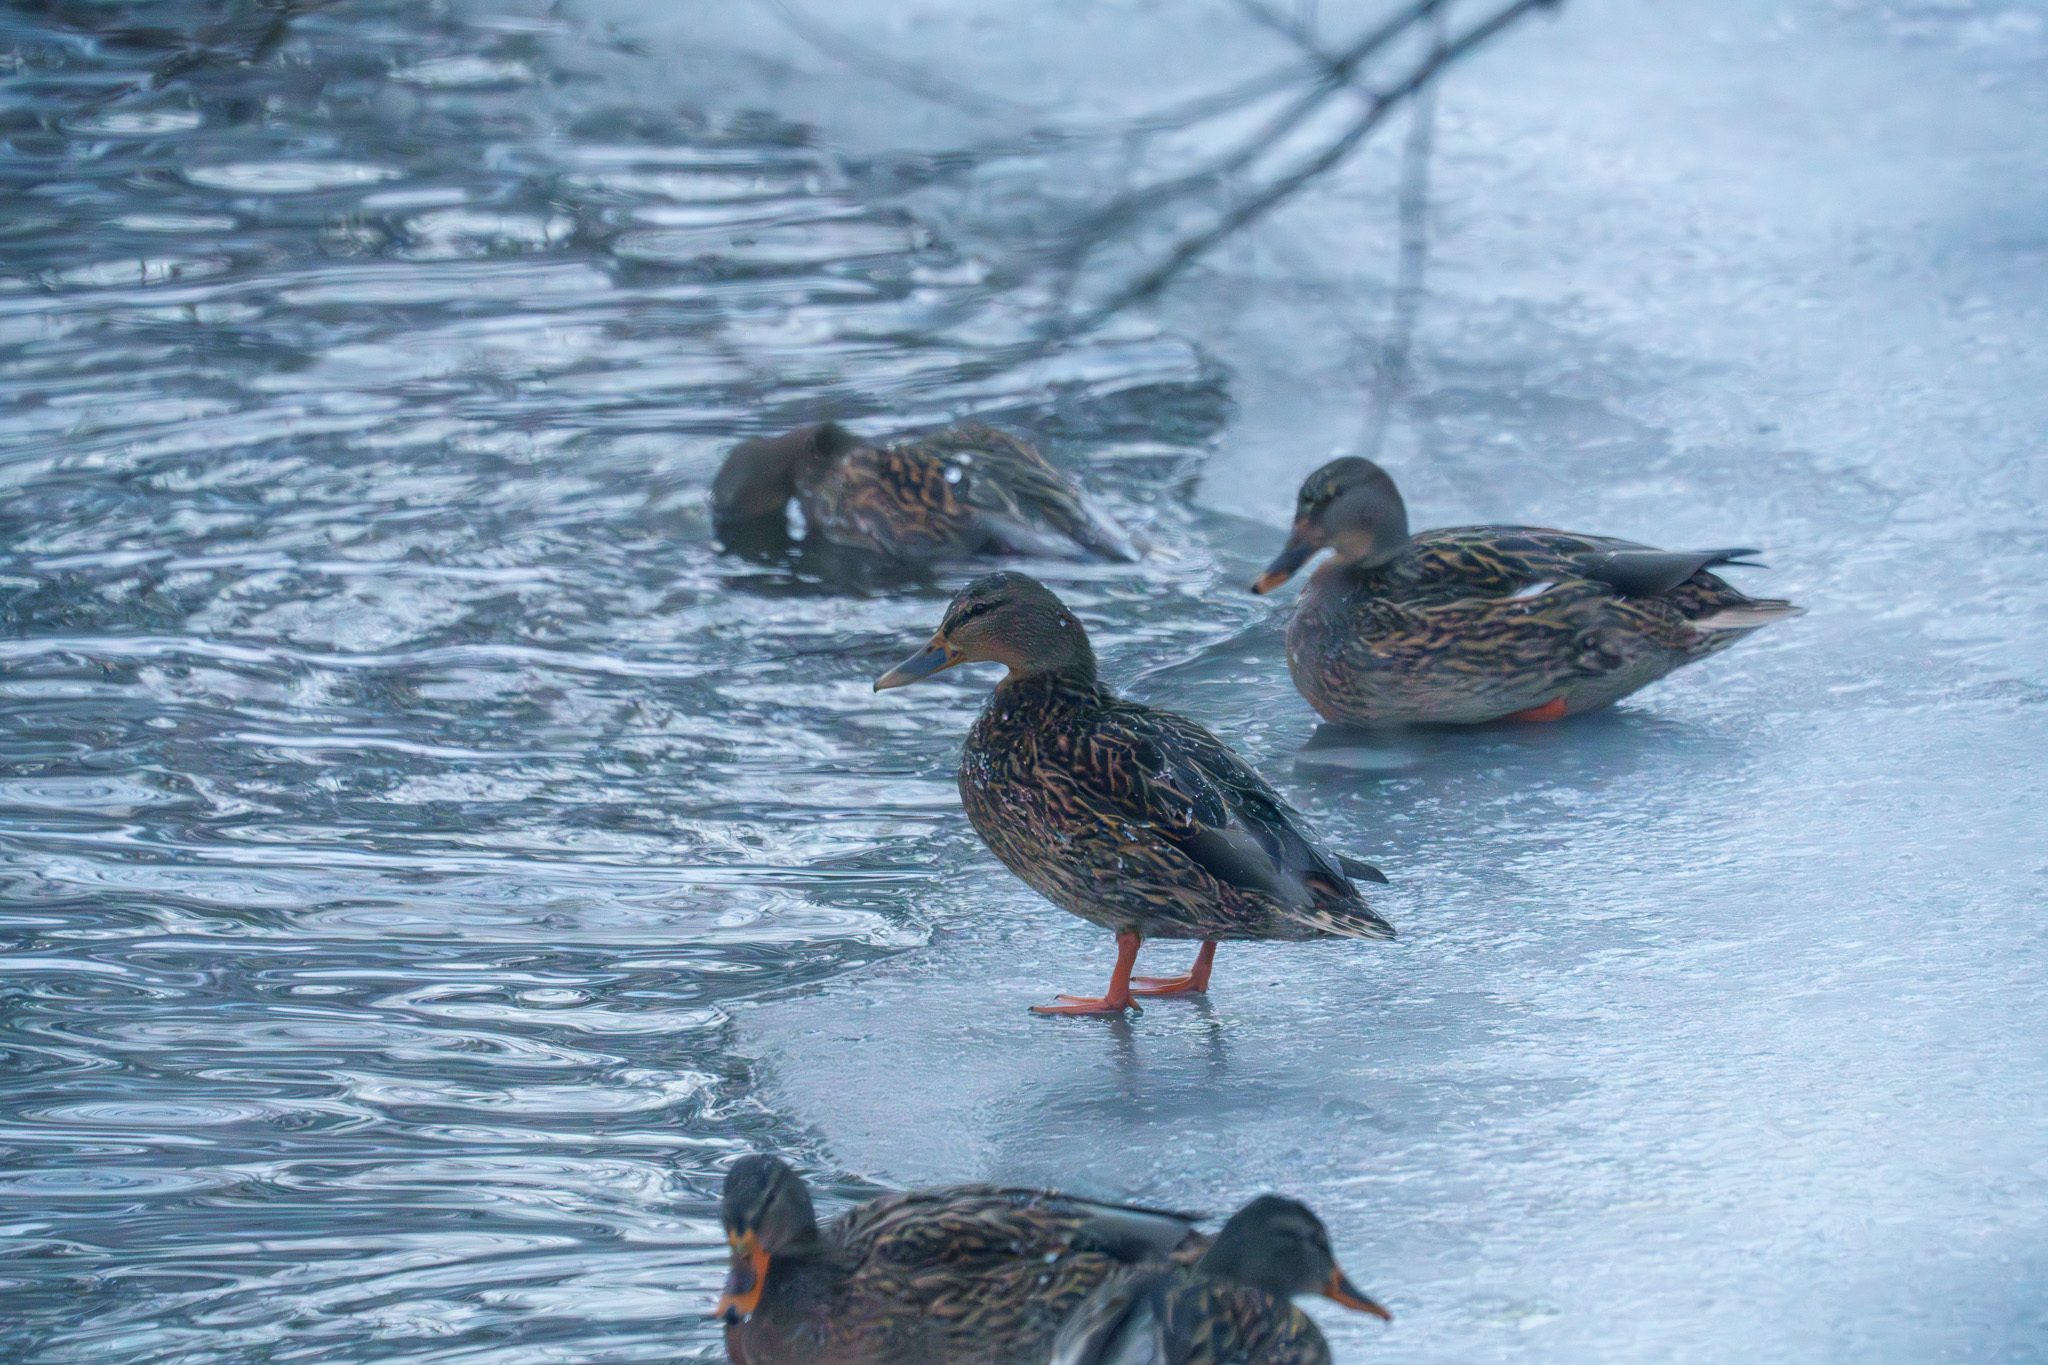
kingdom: Animalia
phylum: Chordata
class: Aves
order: Anseriformes
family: Anatidae
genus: Anas
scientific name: Anas platyrhynchos
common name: Mallard
